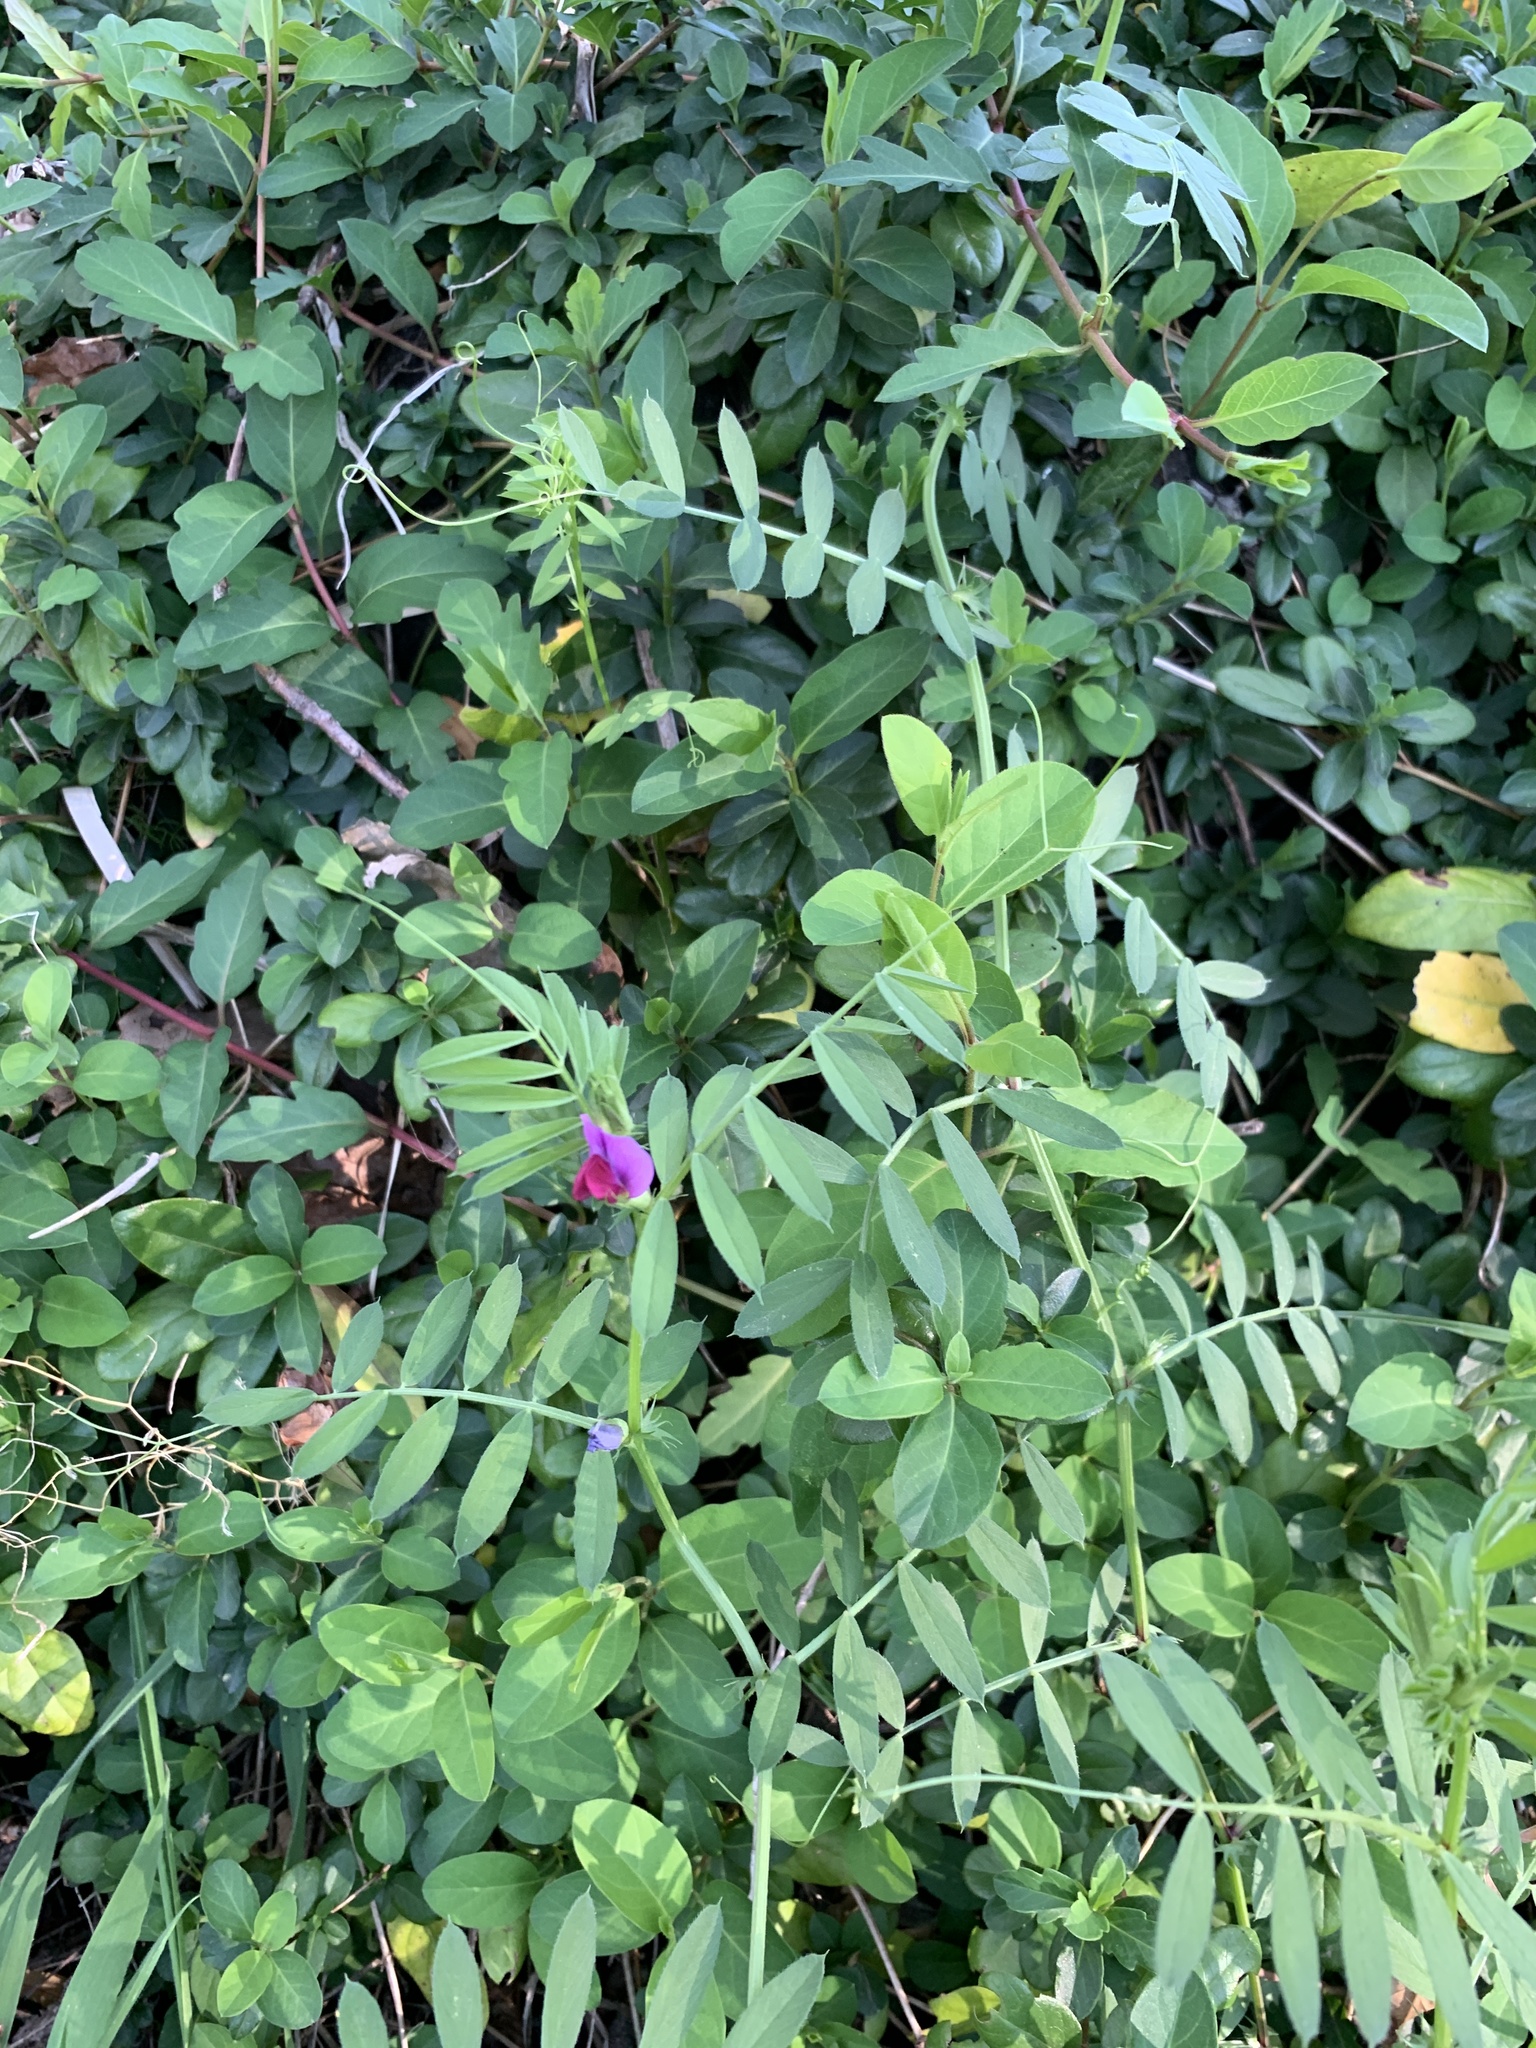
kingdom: Plantae
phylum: Tracheophyta
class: Magnoliopsida
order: Fabales
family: Fabaceae
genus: Vicia
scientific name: Vicia sativa
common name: Garden vetch
